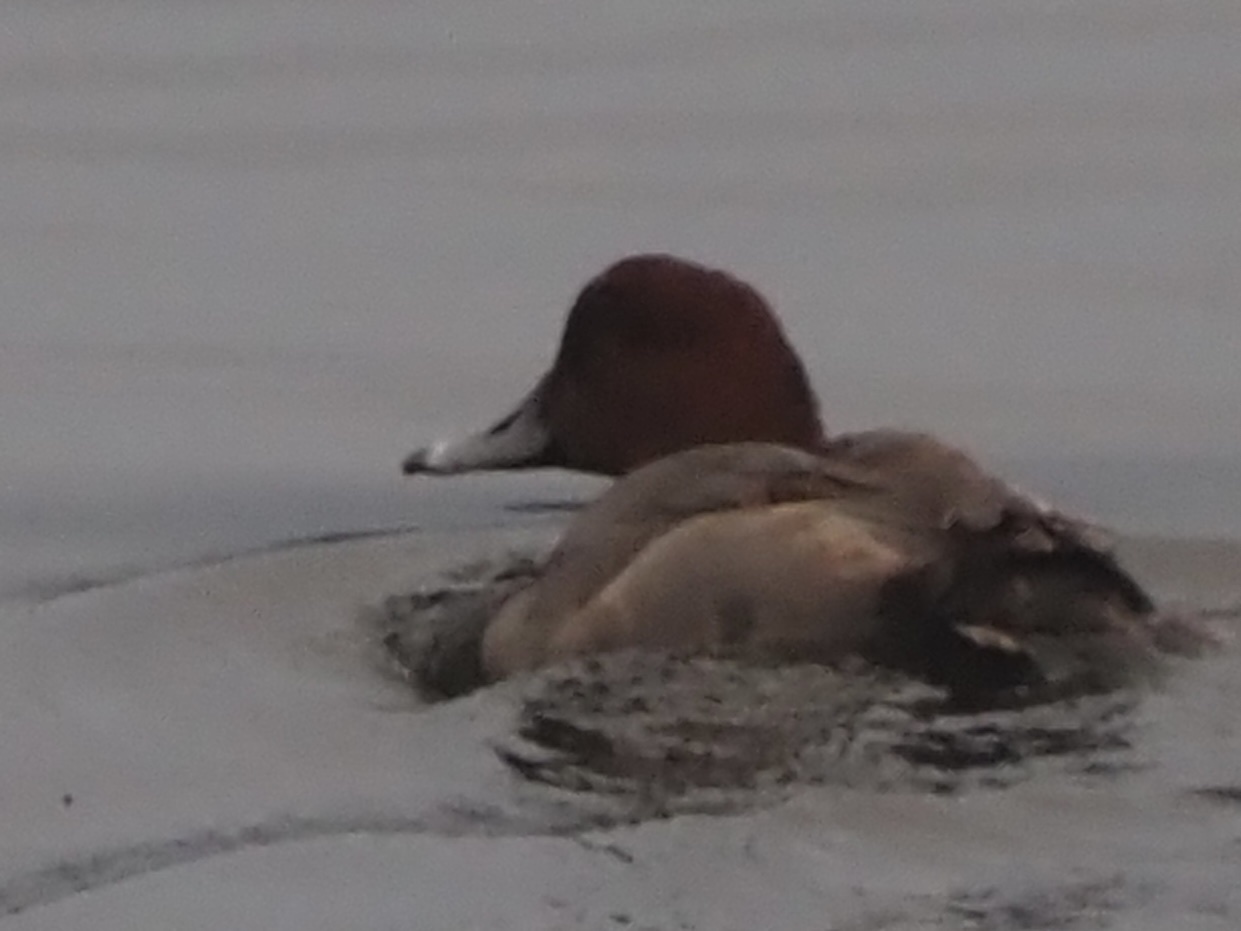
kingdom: Animalia
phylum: Chordata
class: Aves
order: Anseriformes
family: Anatidae
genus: Aythya
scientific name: Aythya americana
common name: Redhead
